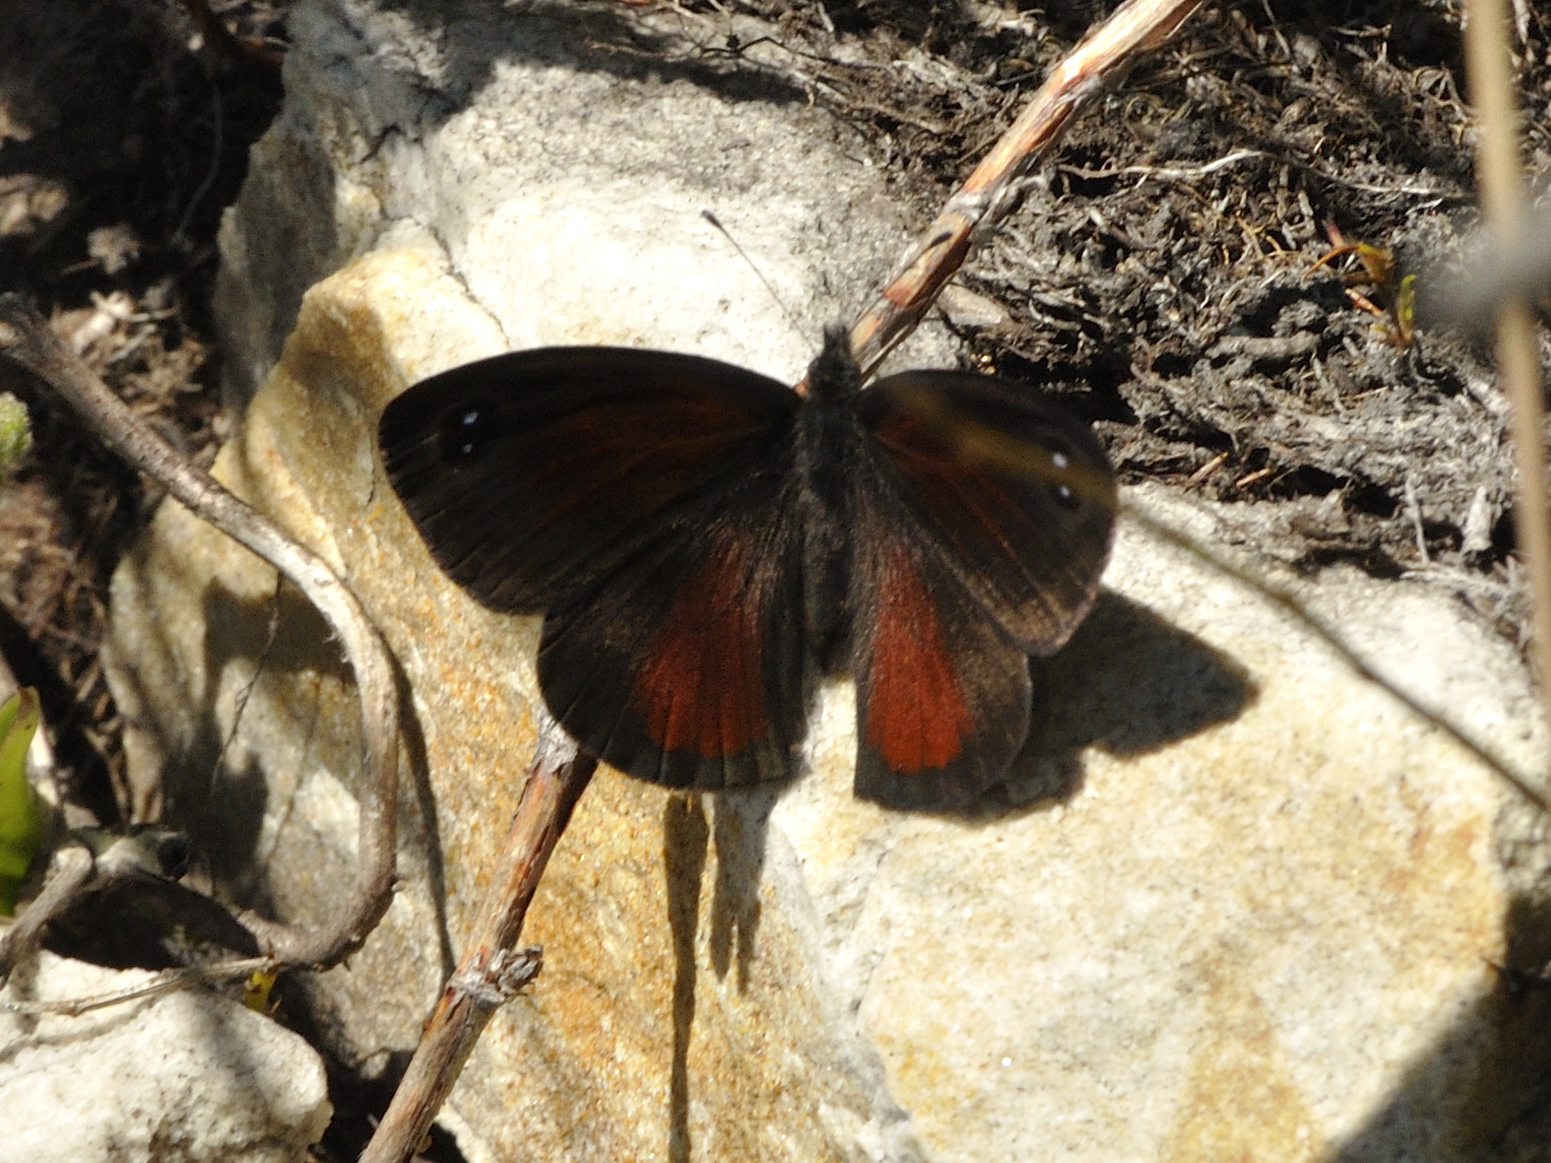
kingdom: Animalia
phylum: Arthropoda
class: Insecta
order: Lepidoptera
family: Nymphalidae
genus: Pseudonympha
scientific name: Pseudonympha hippia
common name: Table mountain brown
